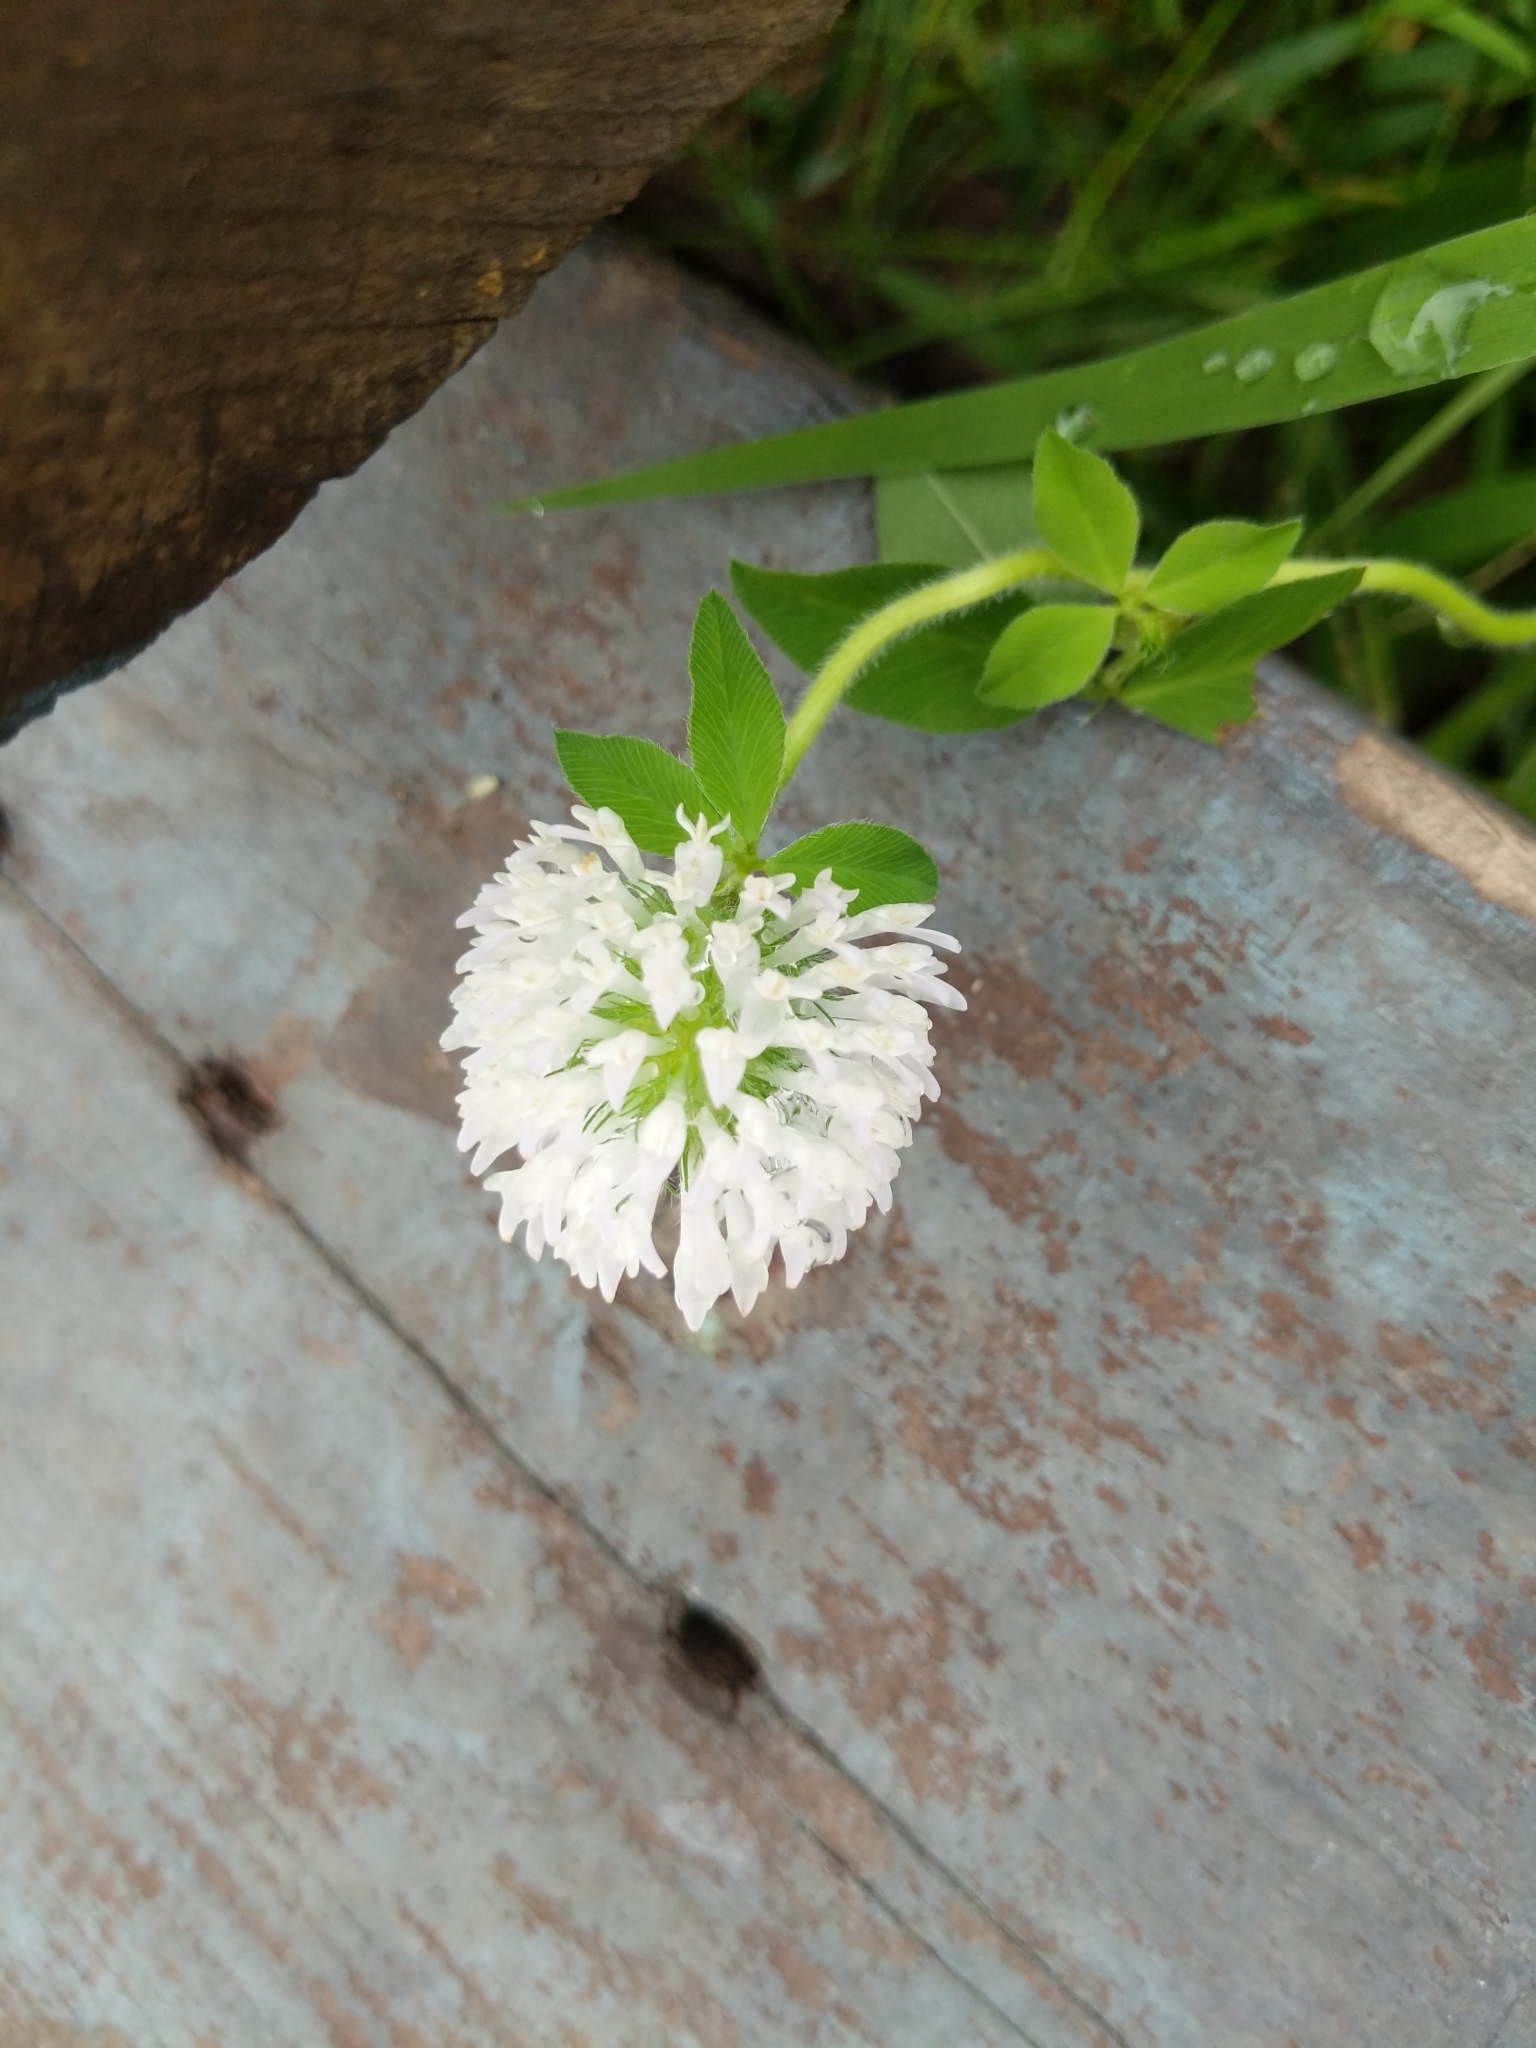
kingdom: Plantae
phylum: Tracheophyta
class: Magnoliopsida
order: Fabales
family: Fabaceae
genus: Trifolium
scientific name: Trifolium pratense
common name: Red clover
